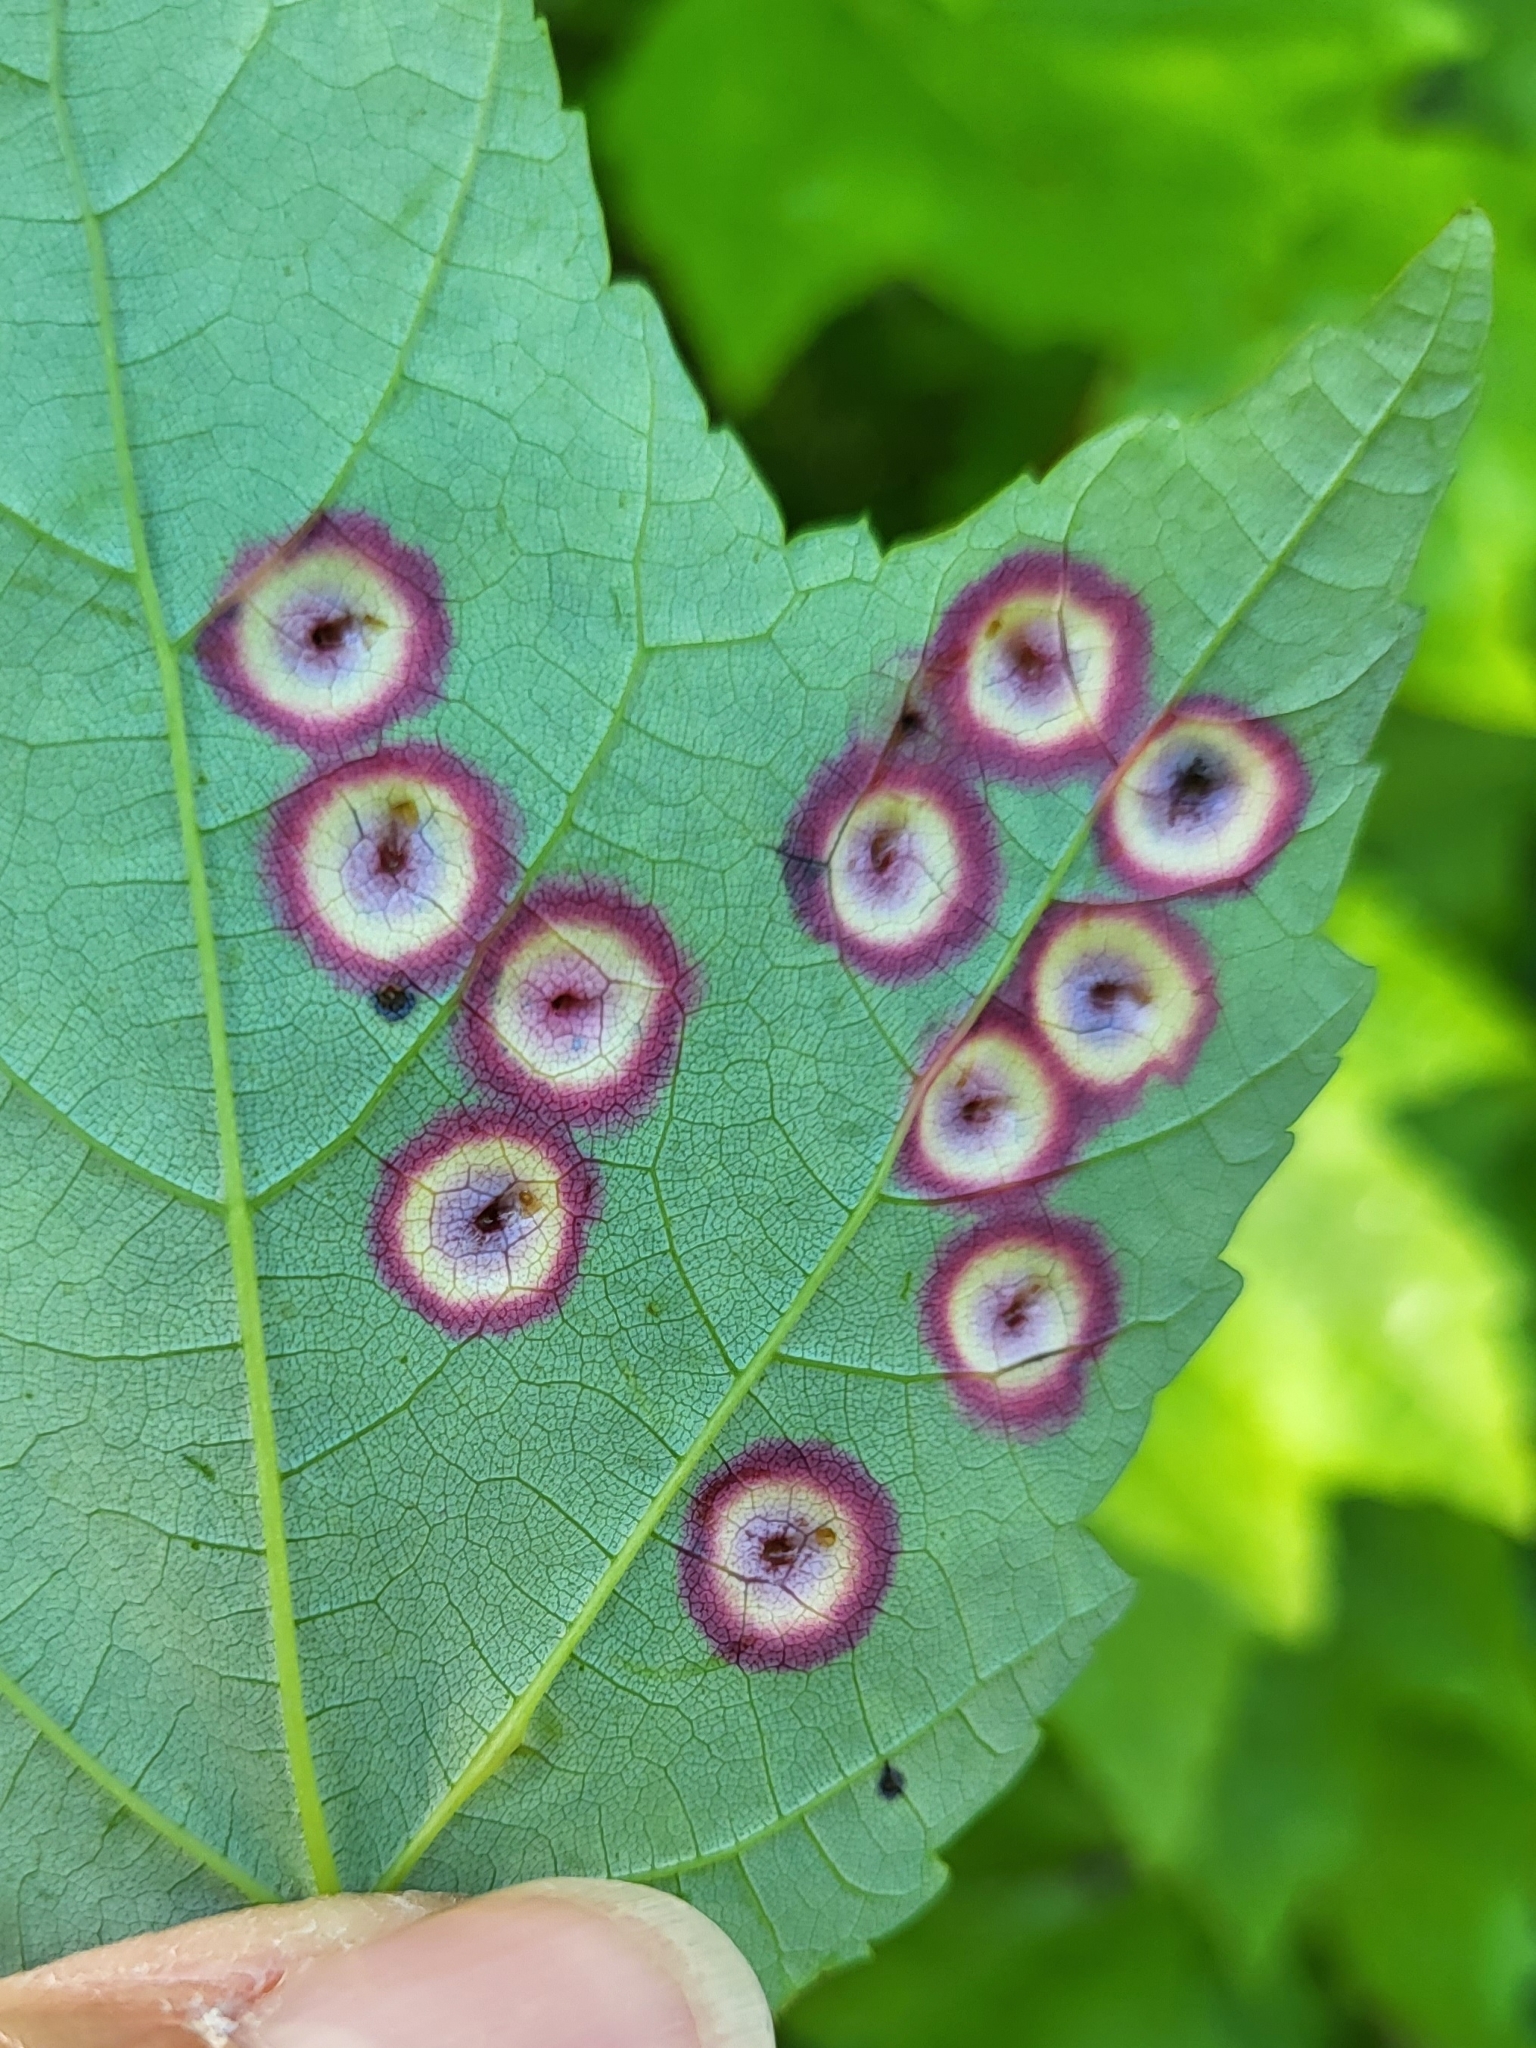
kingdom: Animalia
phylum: Arthropoda
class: Insecta
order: Diptera
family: Cecidomyiidae
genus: Acericecis
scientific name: Acericecis ocellaris
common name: Ocellate gall midge
